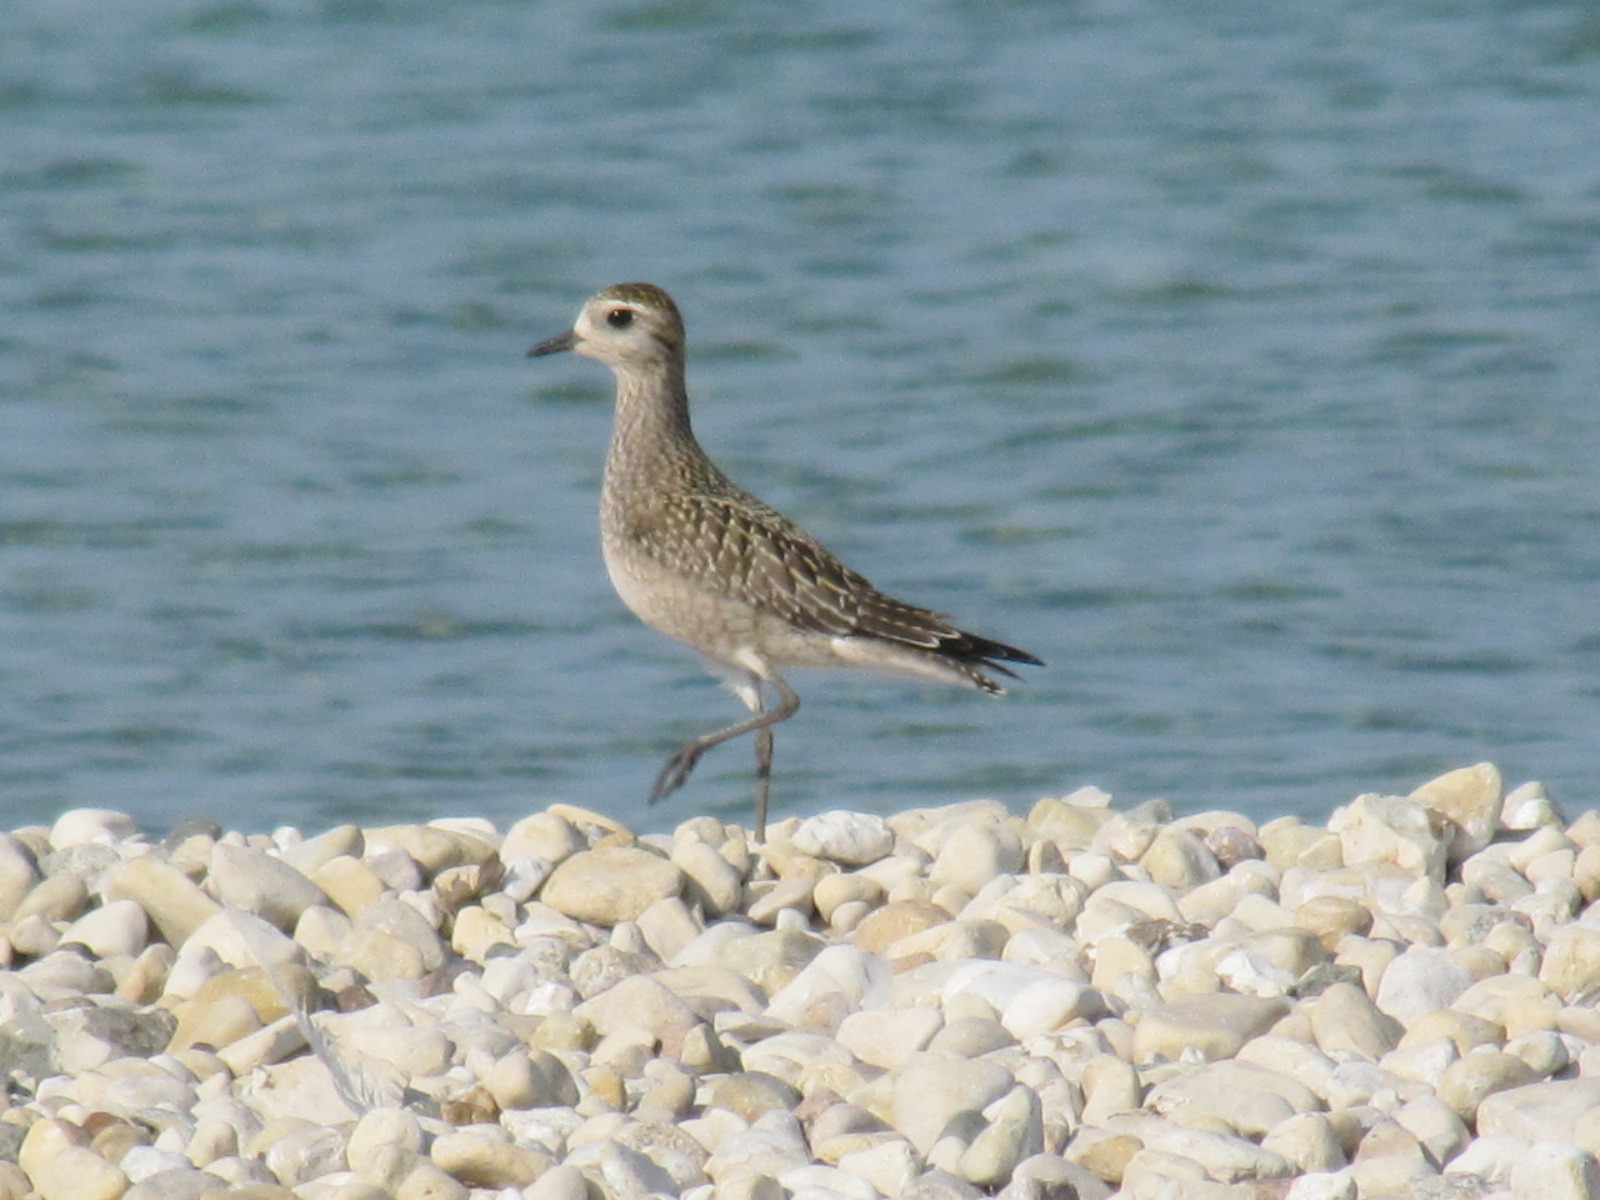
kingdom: Animalia
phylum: Chordata
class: Aves
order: Charadriiformes
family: Charadriidae
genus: Pluvialis
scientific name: Pluvialis dominica
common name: American golden plover
